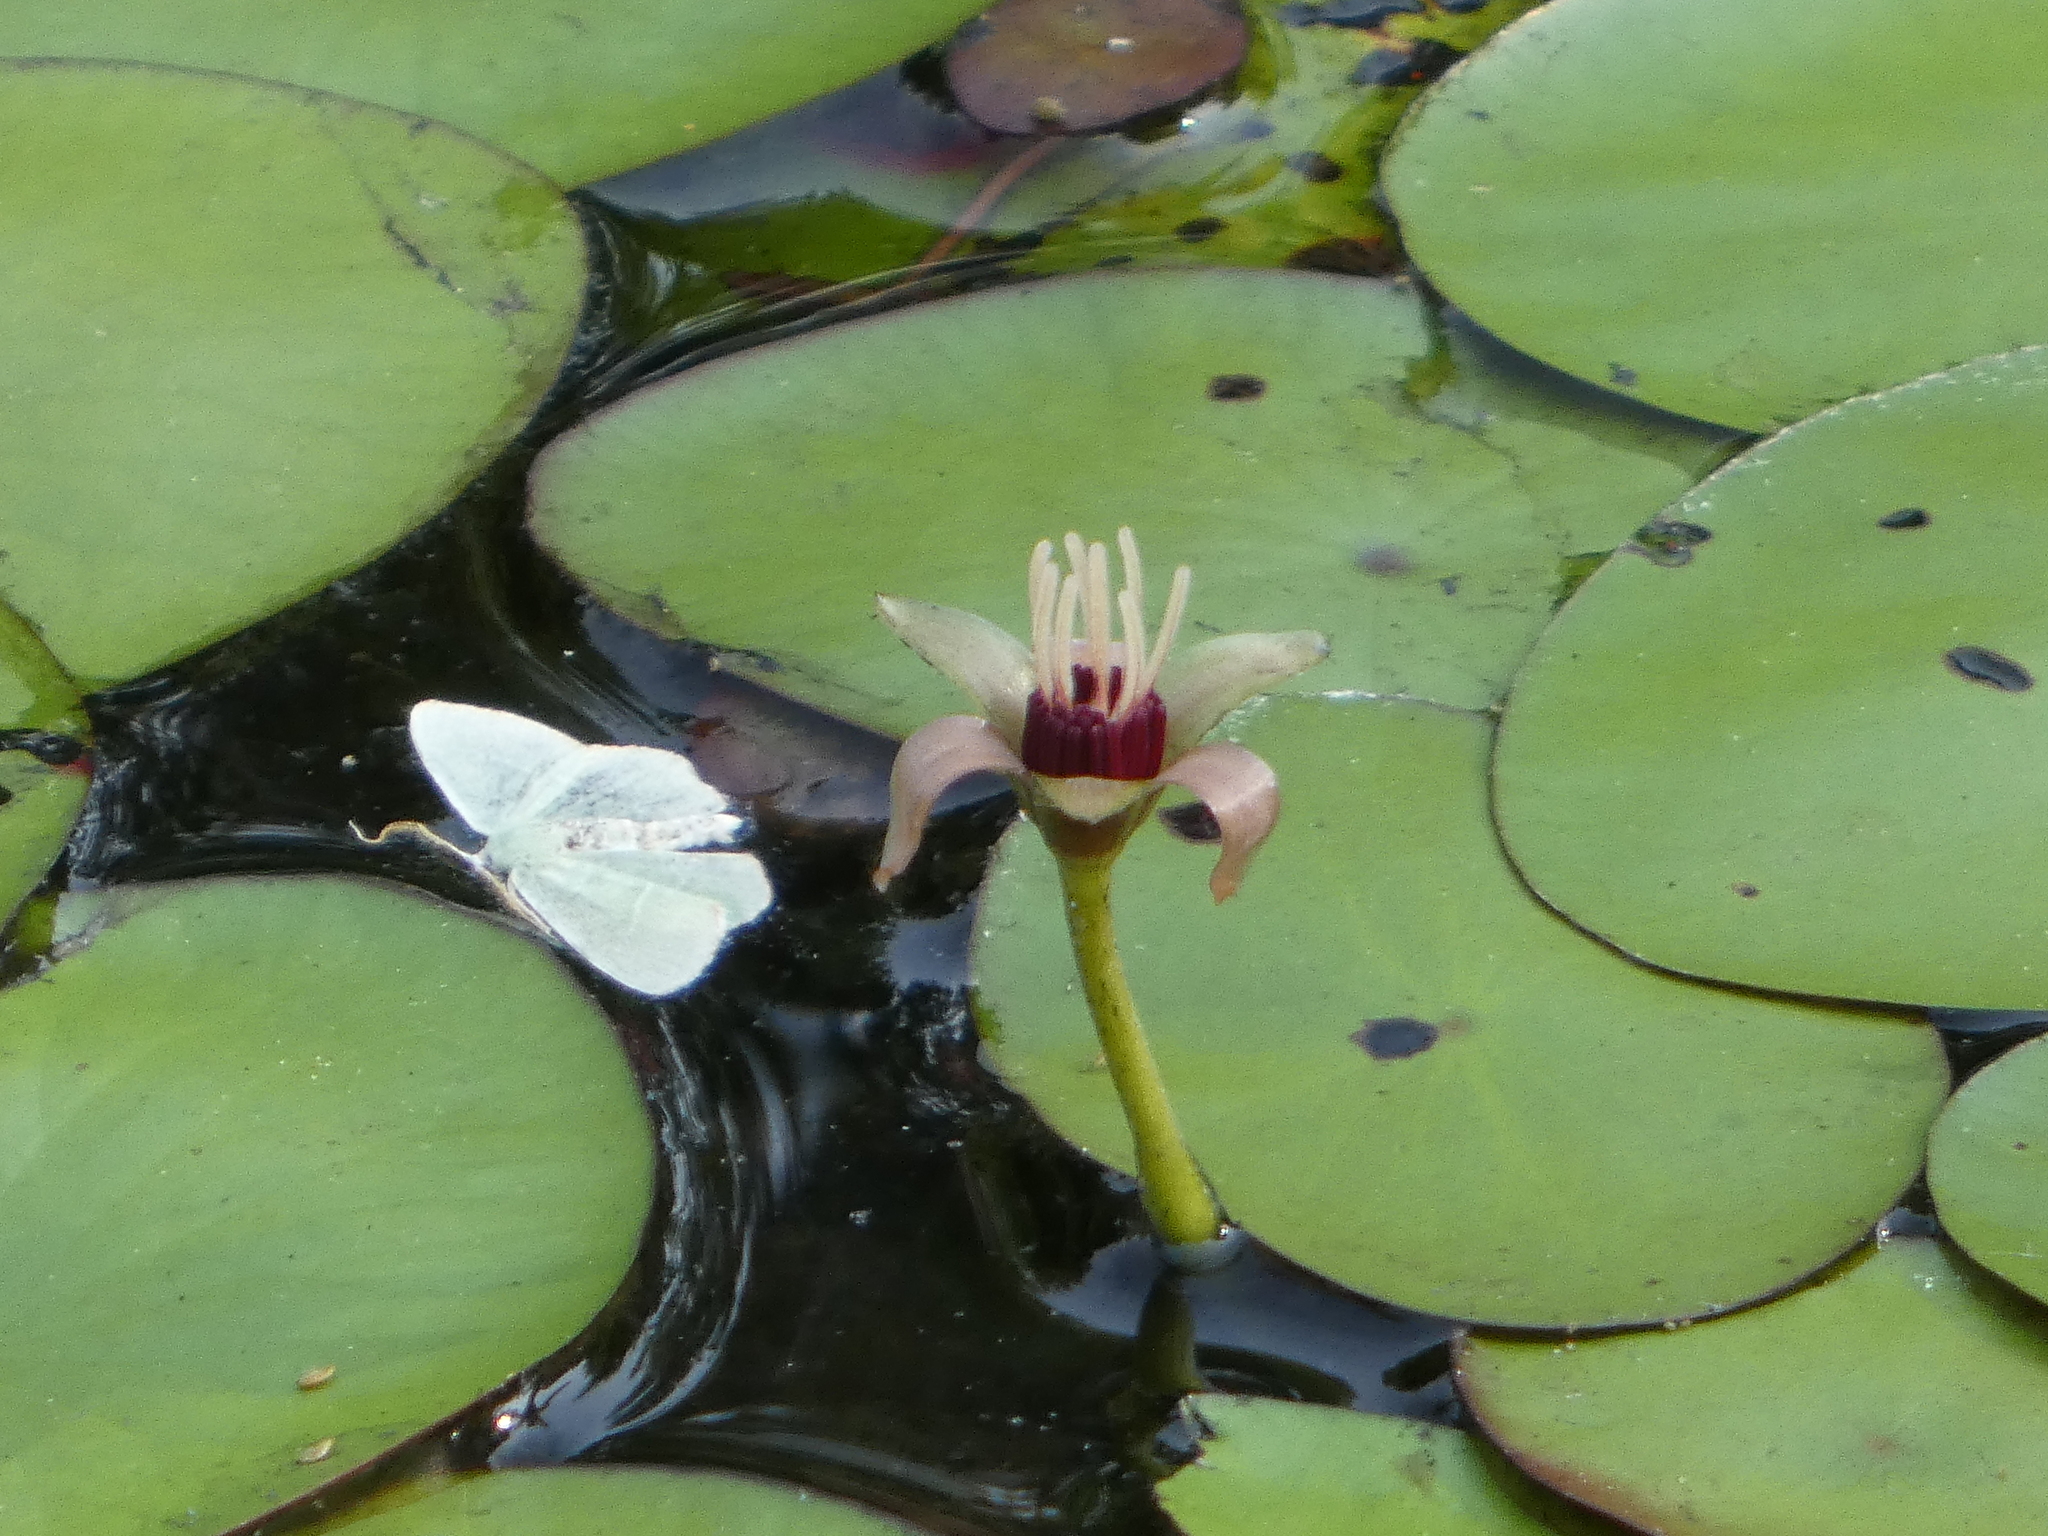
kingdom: Plantae
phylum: Tracheophyta
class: Magnoliopsida
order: Nymphaeales
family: Cabombaceae
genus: Brasenia
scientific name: Brasenia schreberi
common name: Water-shield
